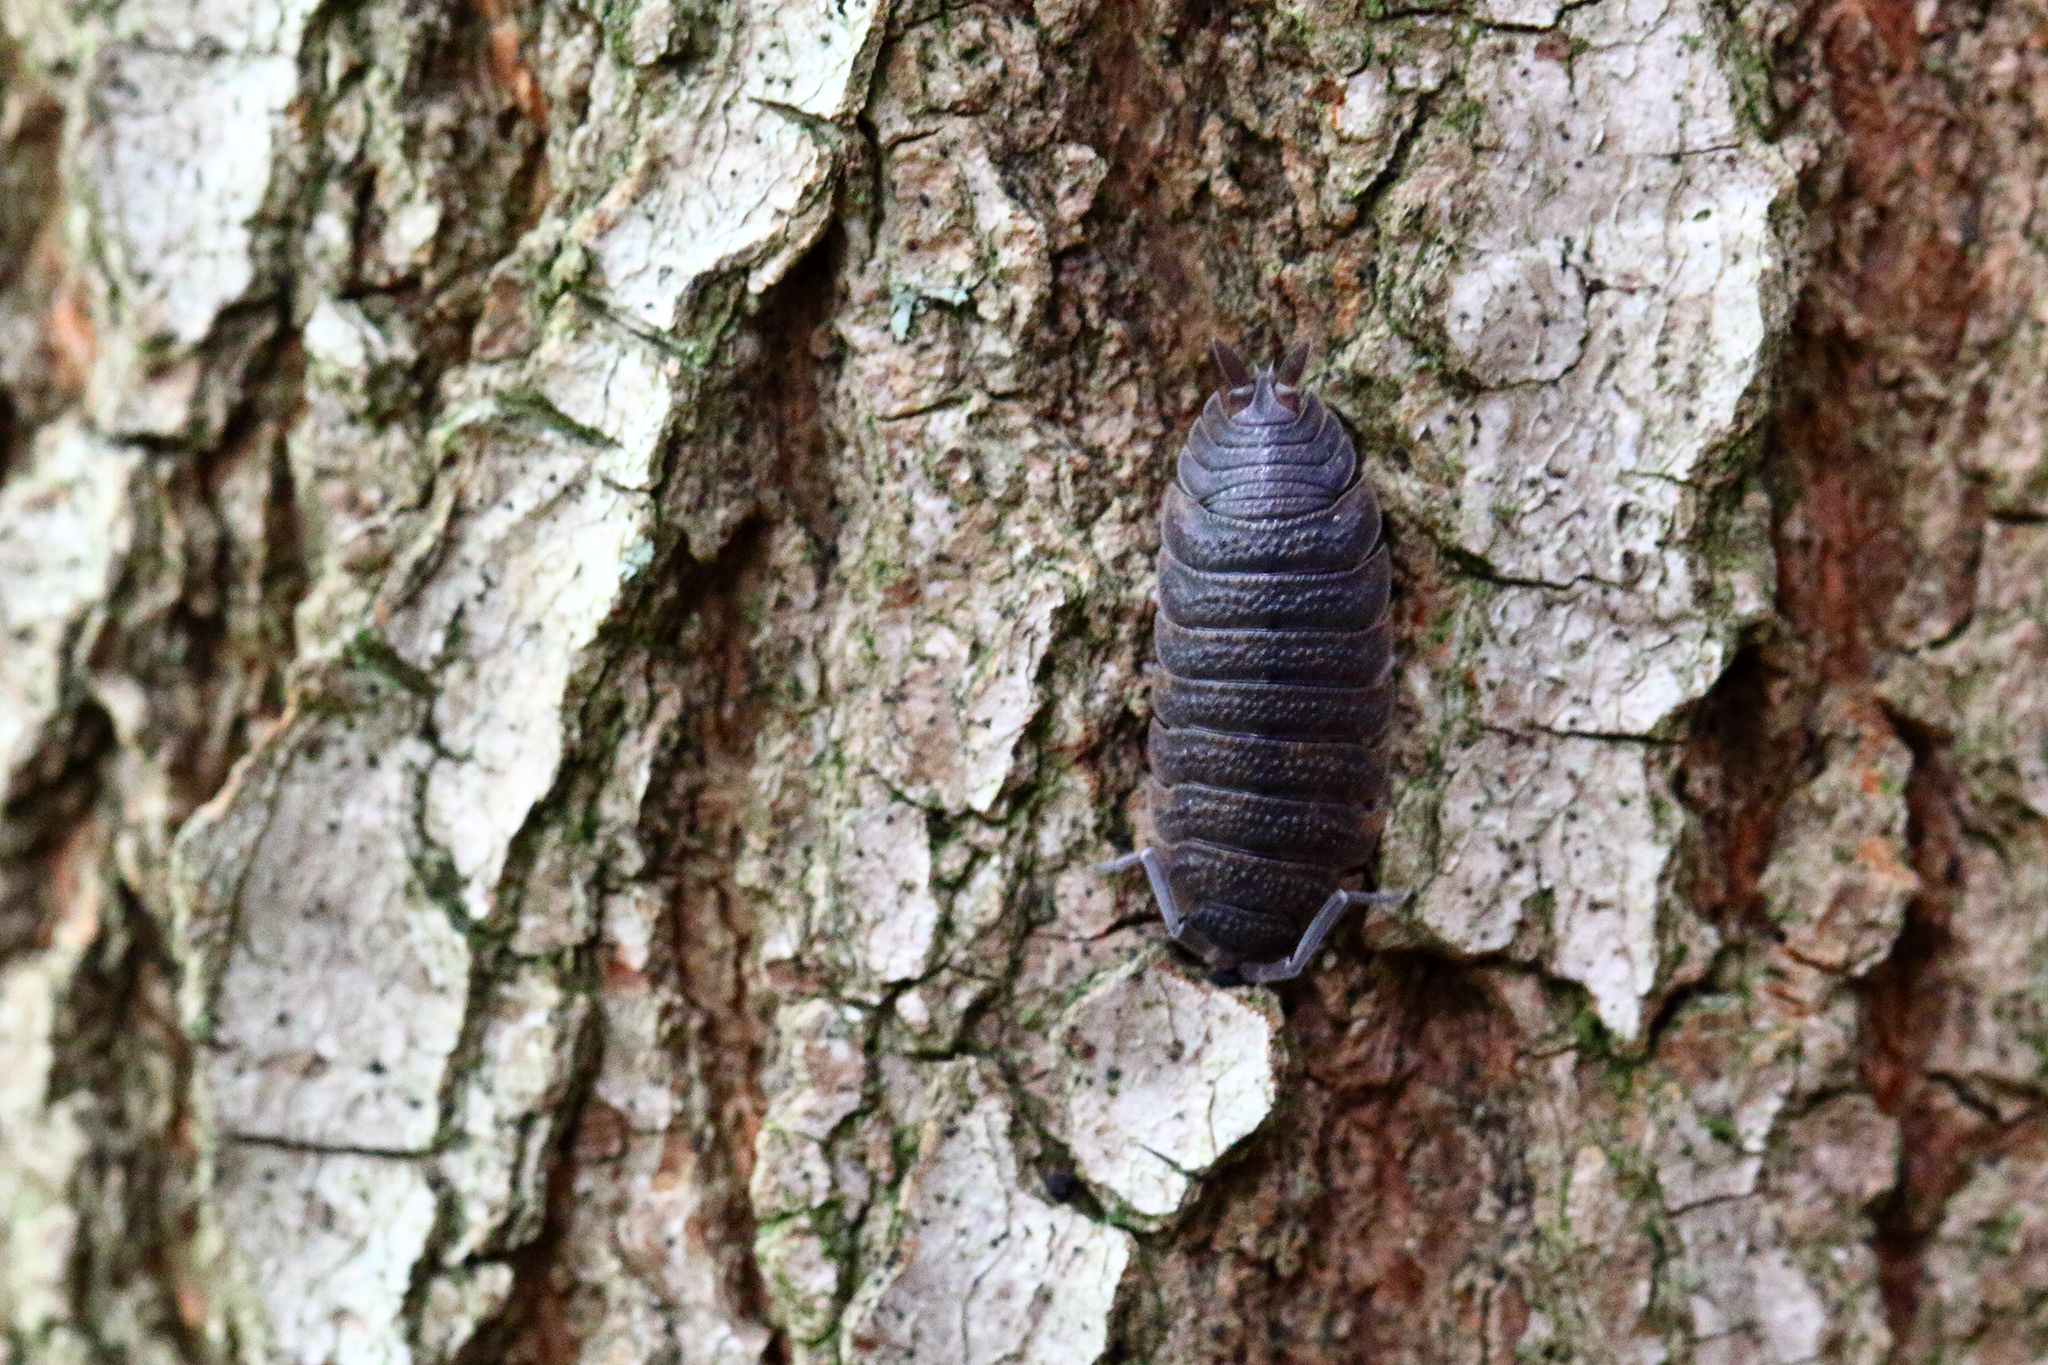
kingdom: Animalia
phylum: Arthropoda
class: Malacostraca
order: Isopoda
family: Porcellionidae
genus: Porcellio
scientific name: Porcellio scaber
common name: Common rough woodlouse
